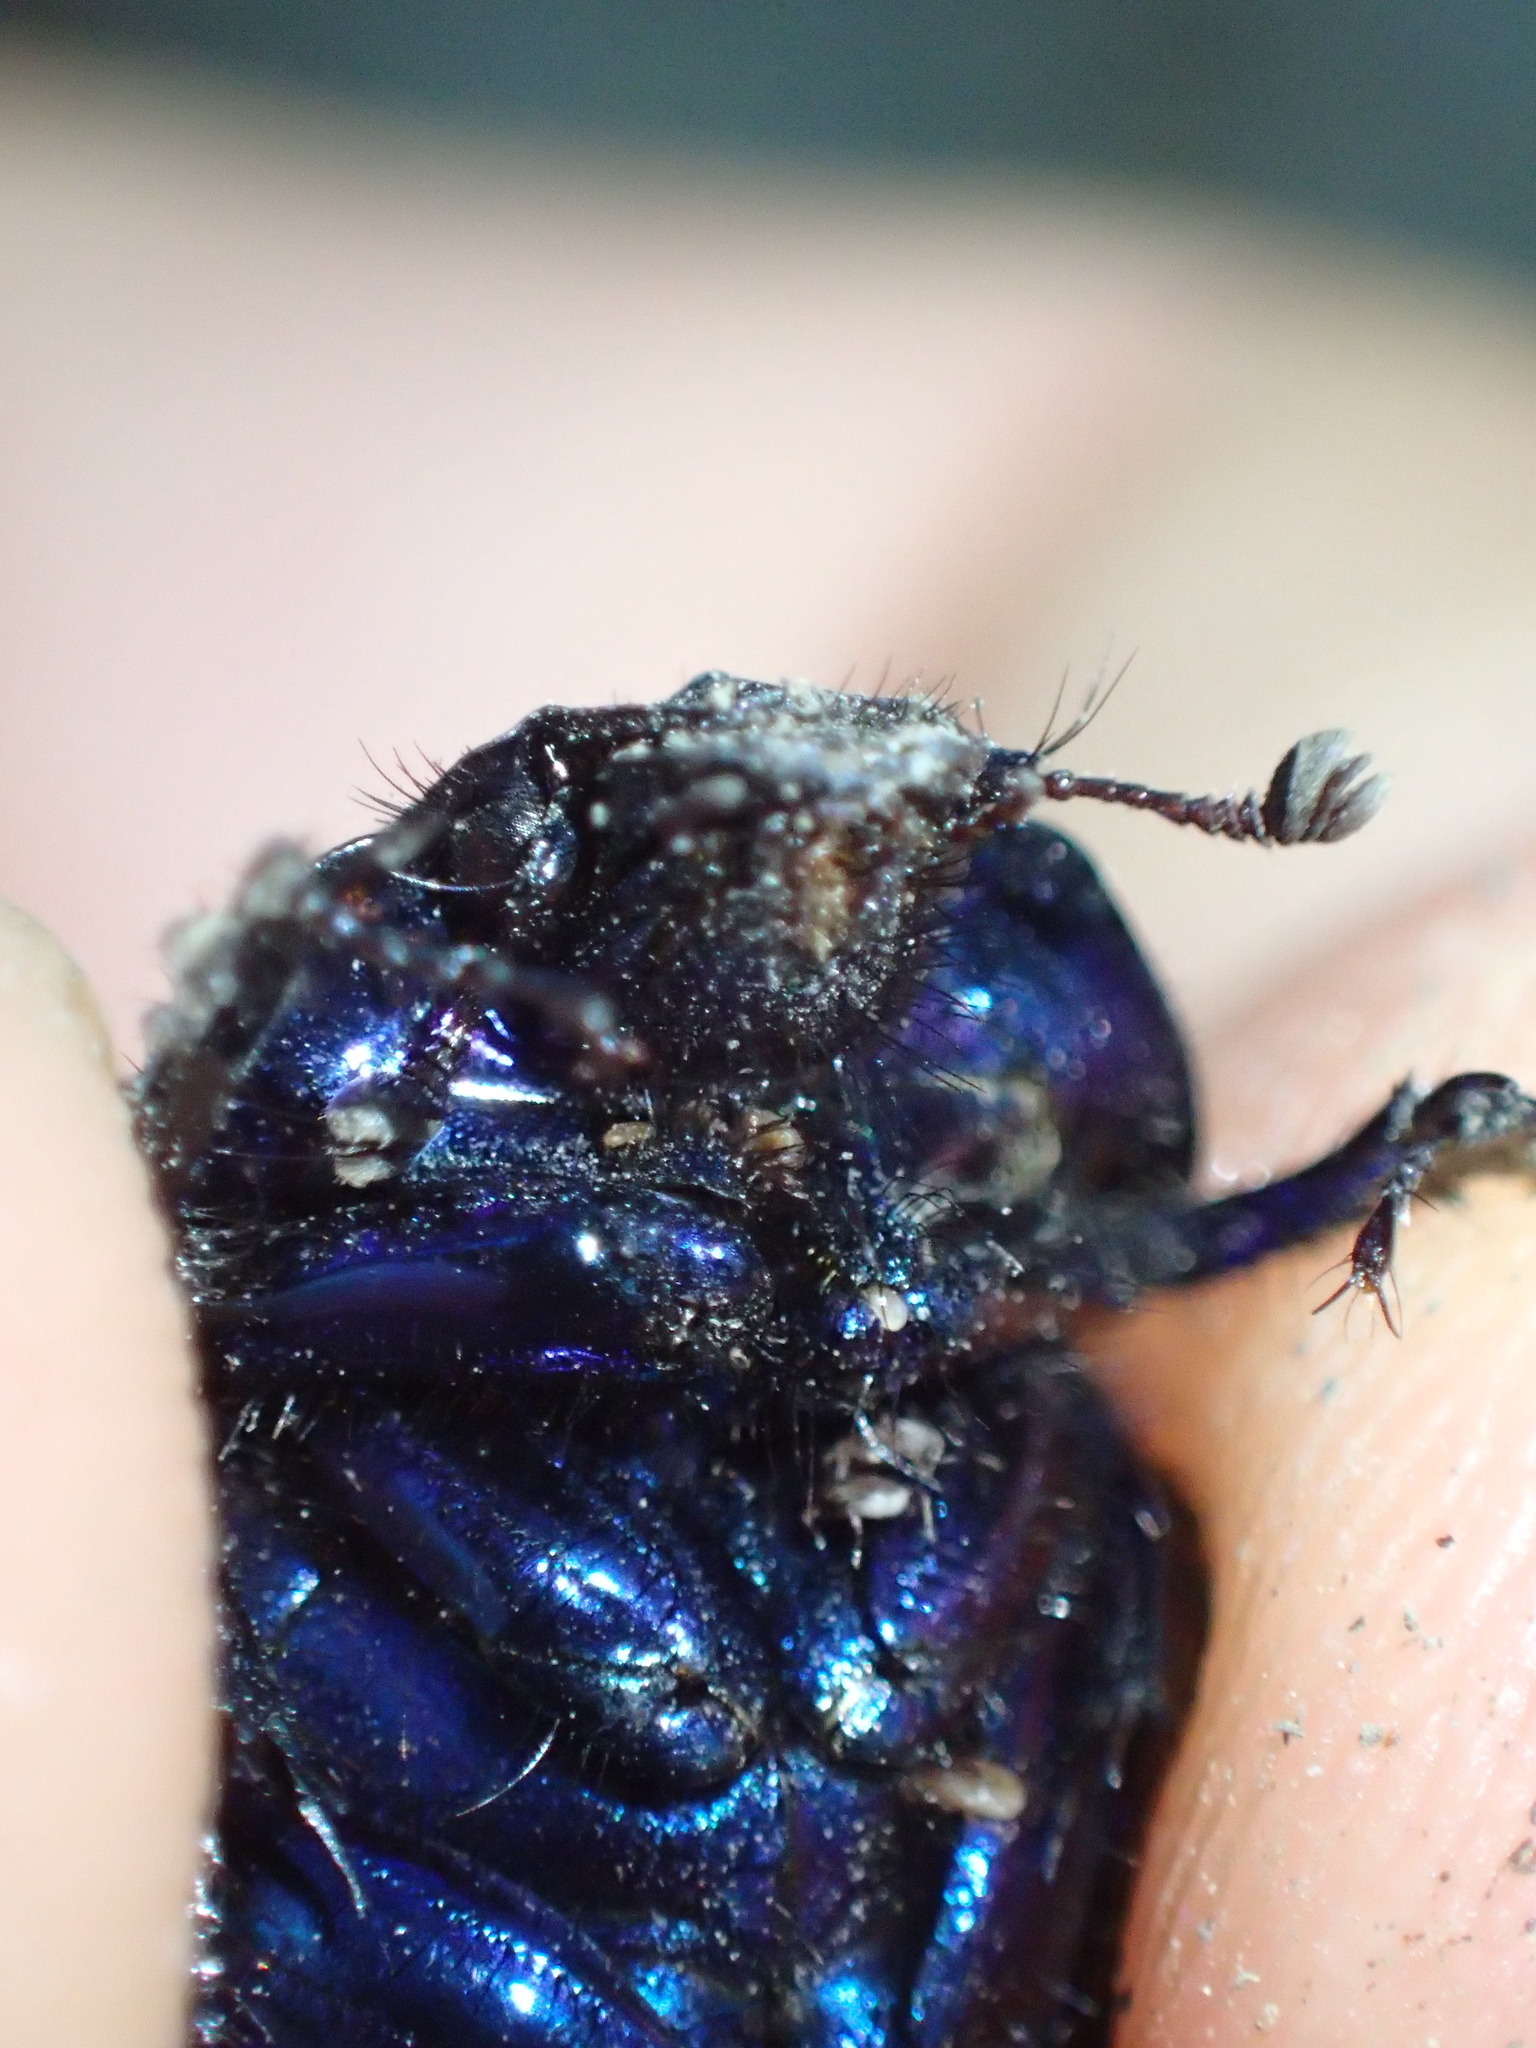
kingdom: Animalia
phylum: Arthropoda
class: Insecta
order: Coleoptera
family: Geotrupidae
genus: Anoplotrupes
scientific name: Anoplotrupes stercorosus
